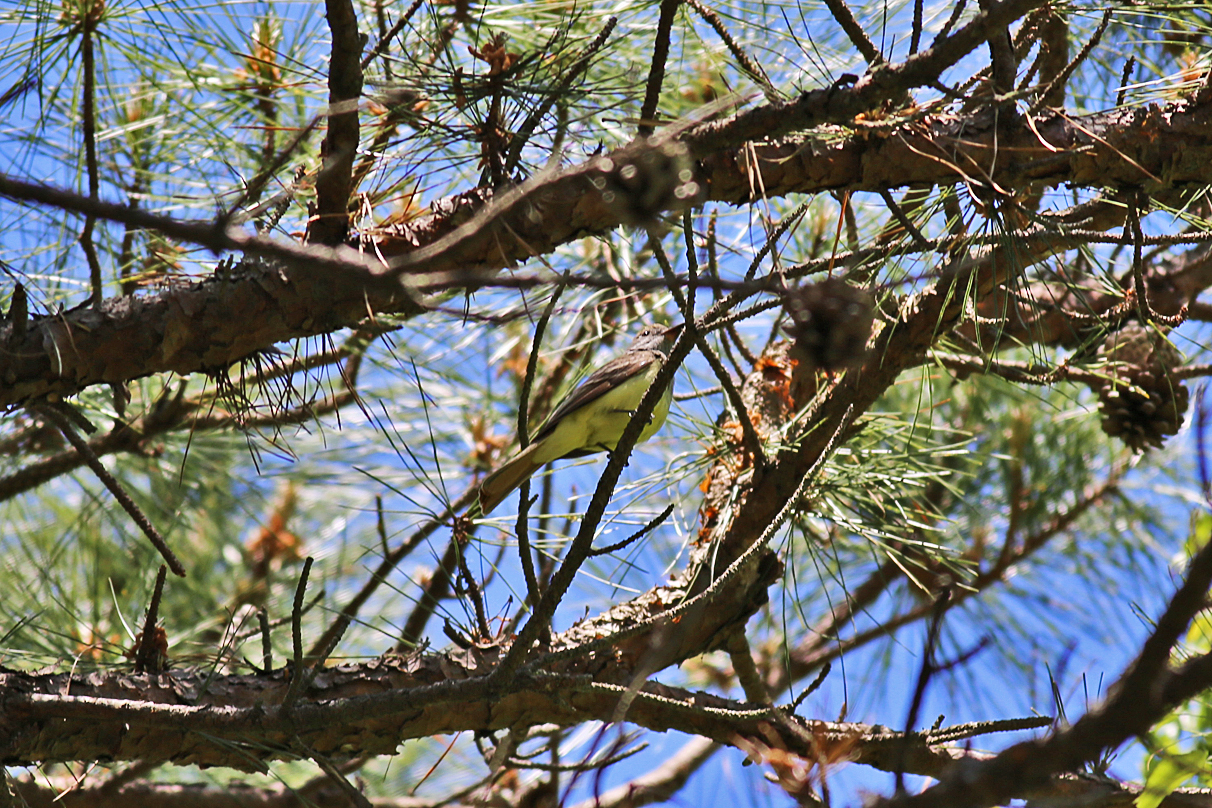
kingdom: Animalia
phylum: Chordata
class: Aves
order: Passeriformes
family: Tyrannidae
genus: Myiarchus
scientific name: Myiarchus crinitus
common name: Great crested flycatcher
